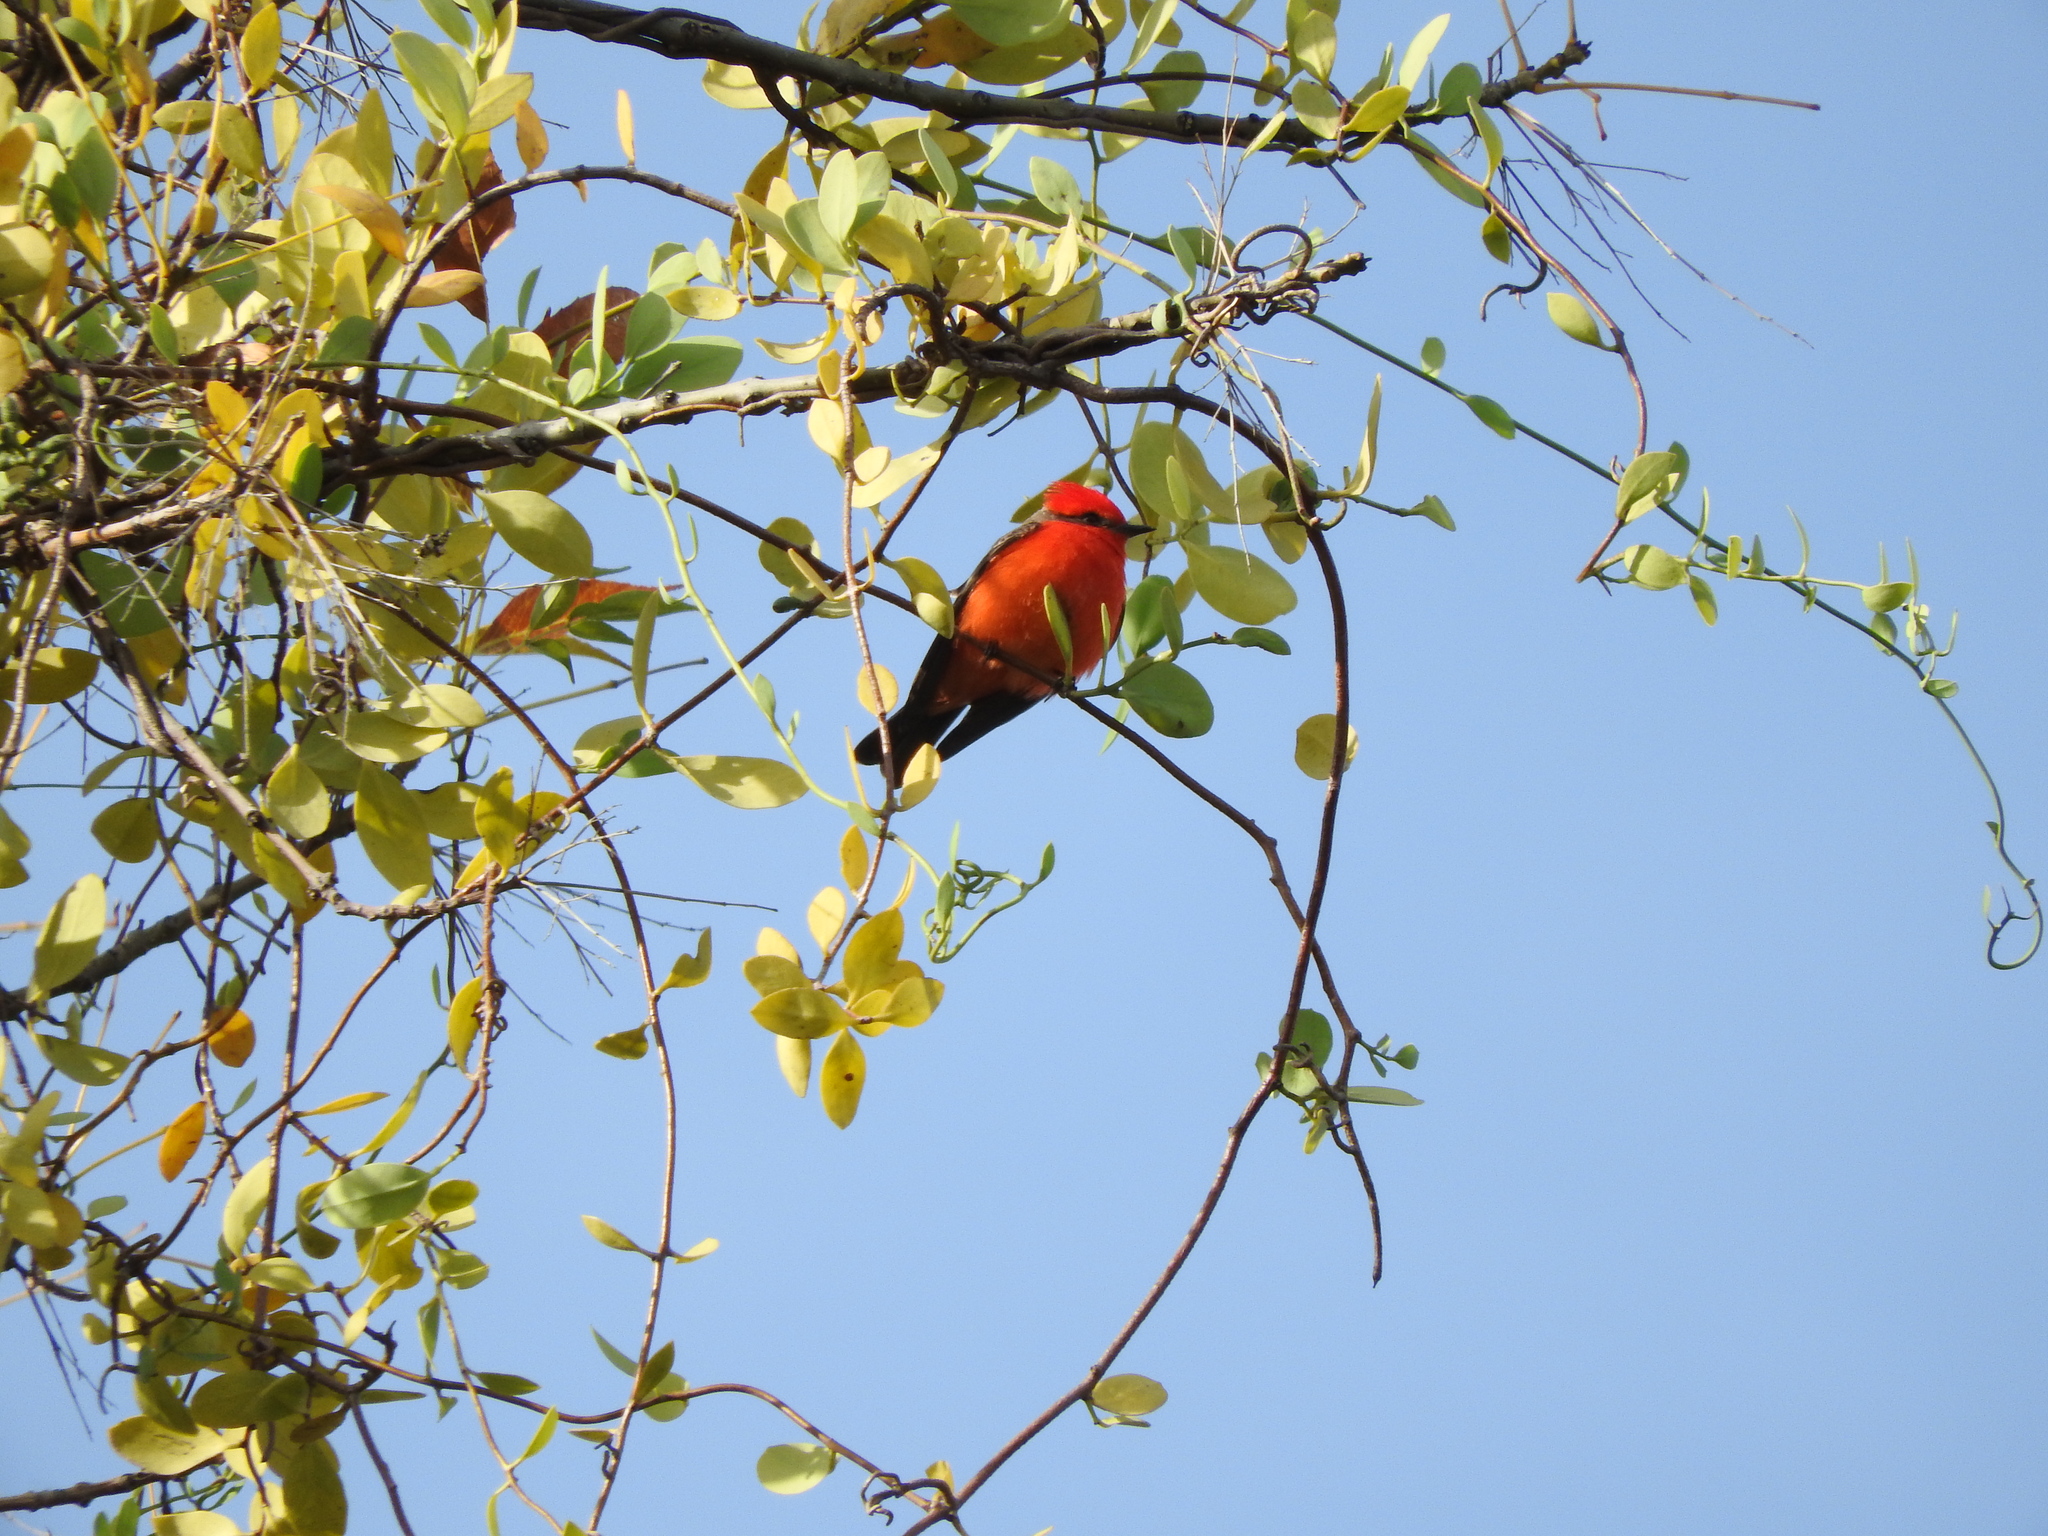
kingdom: Animalia
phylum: Chordata
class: Aves
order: Passeriformes
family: Tyrannidae
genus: Pyrocephalus
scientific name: Pyrocephalus rubinus
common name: Vermilion flycatcher
